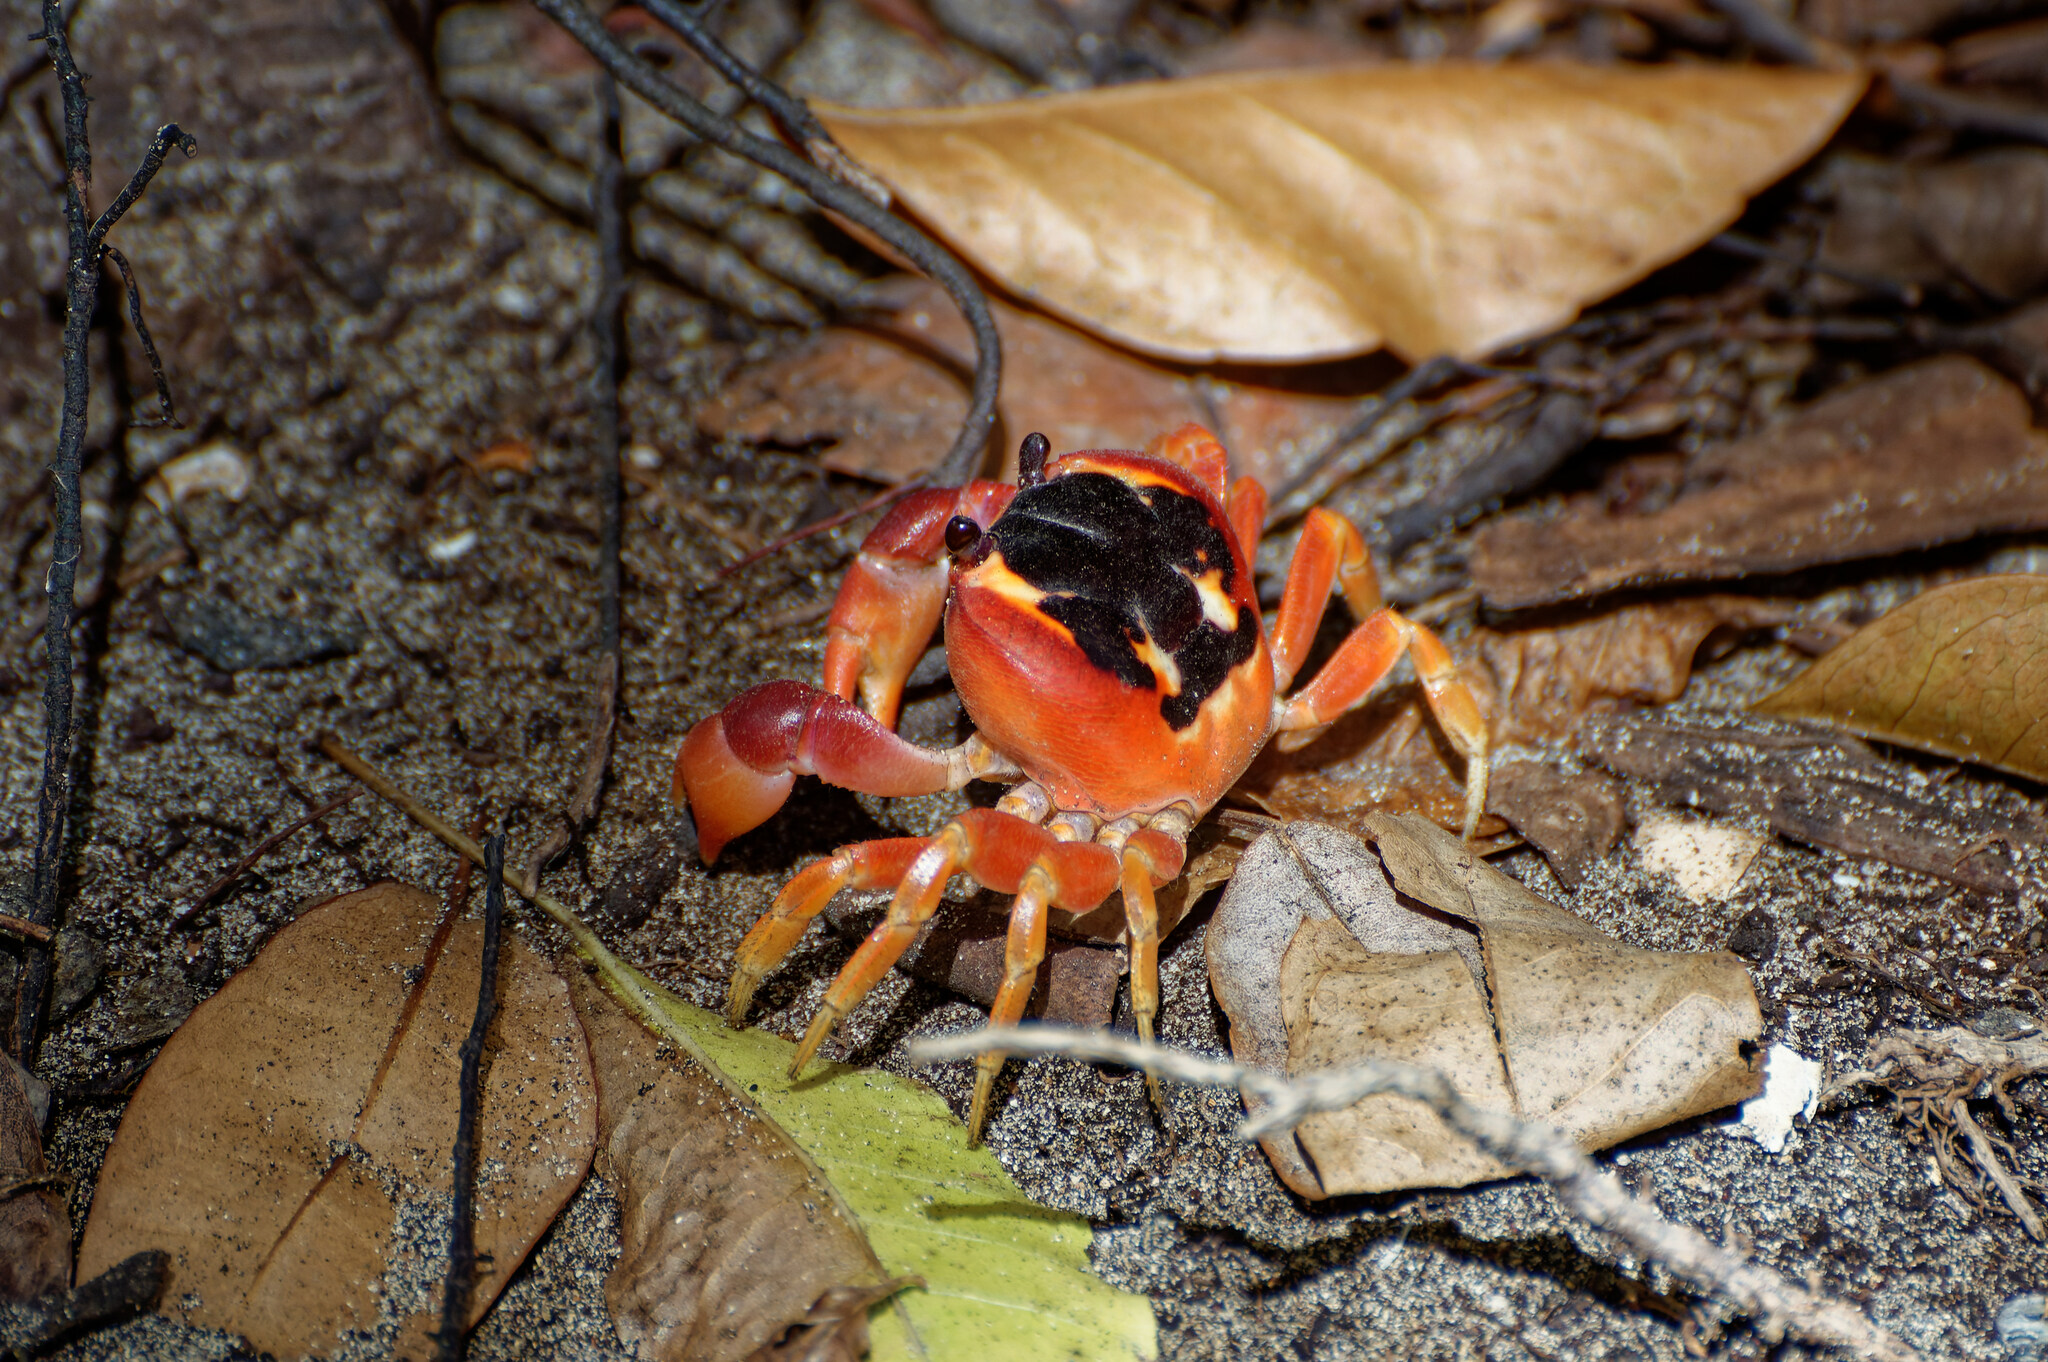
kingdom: Animalia
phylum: Arthropoda
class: Malacostraca
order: Decapoda
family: Gecarcinidae
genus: Gecarcinus
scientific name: Gecarcinus lateralis
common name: Bermuda land crab
